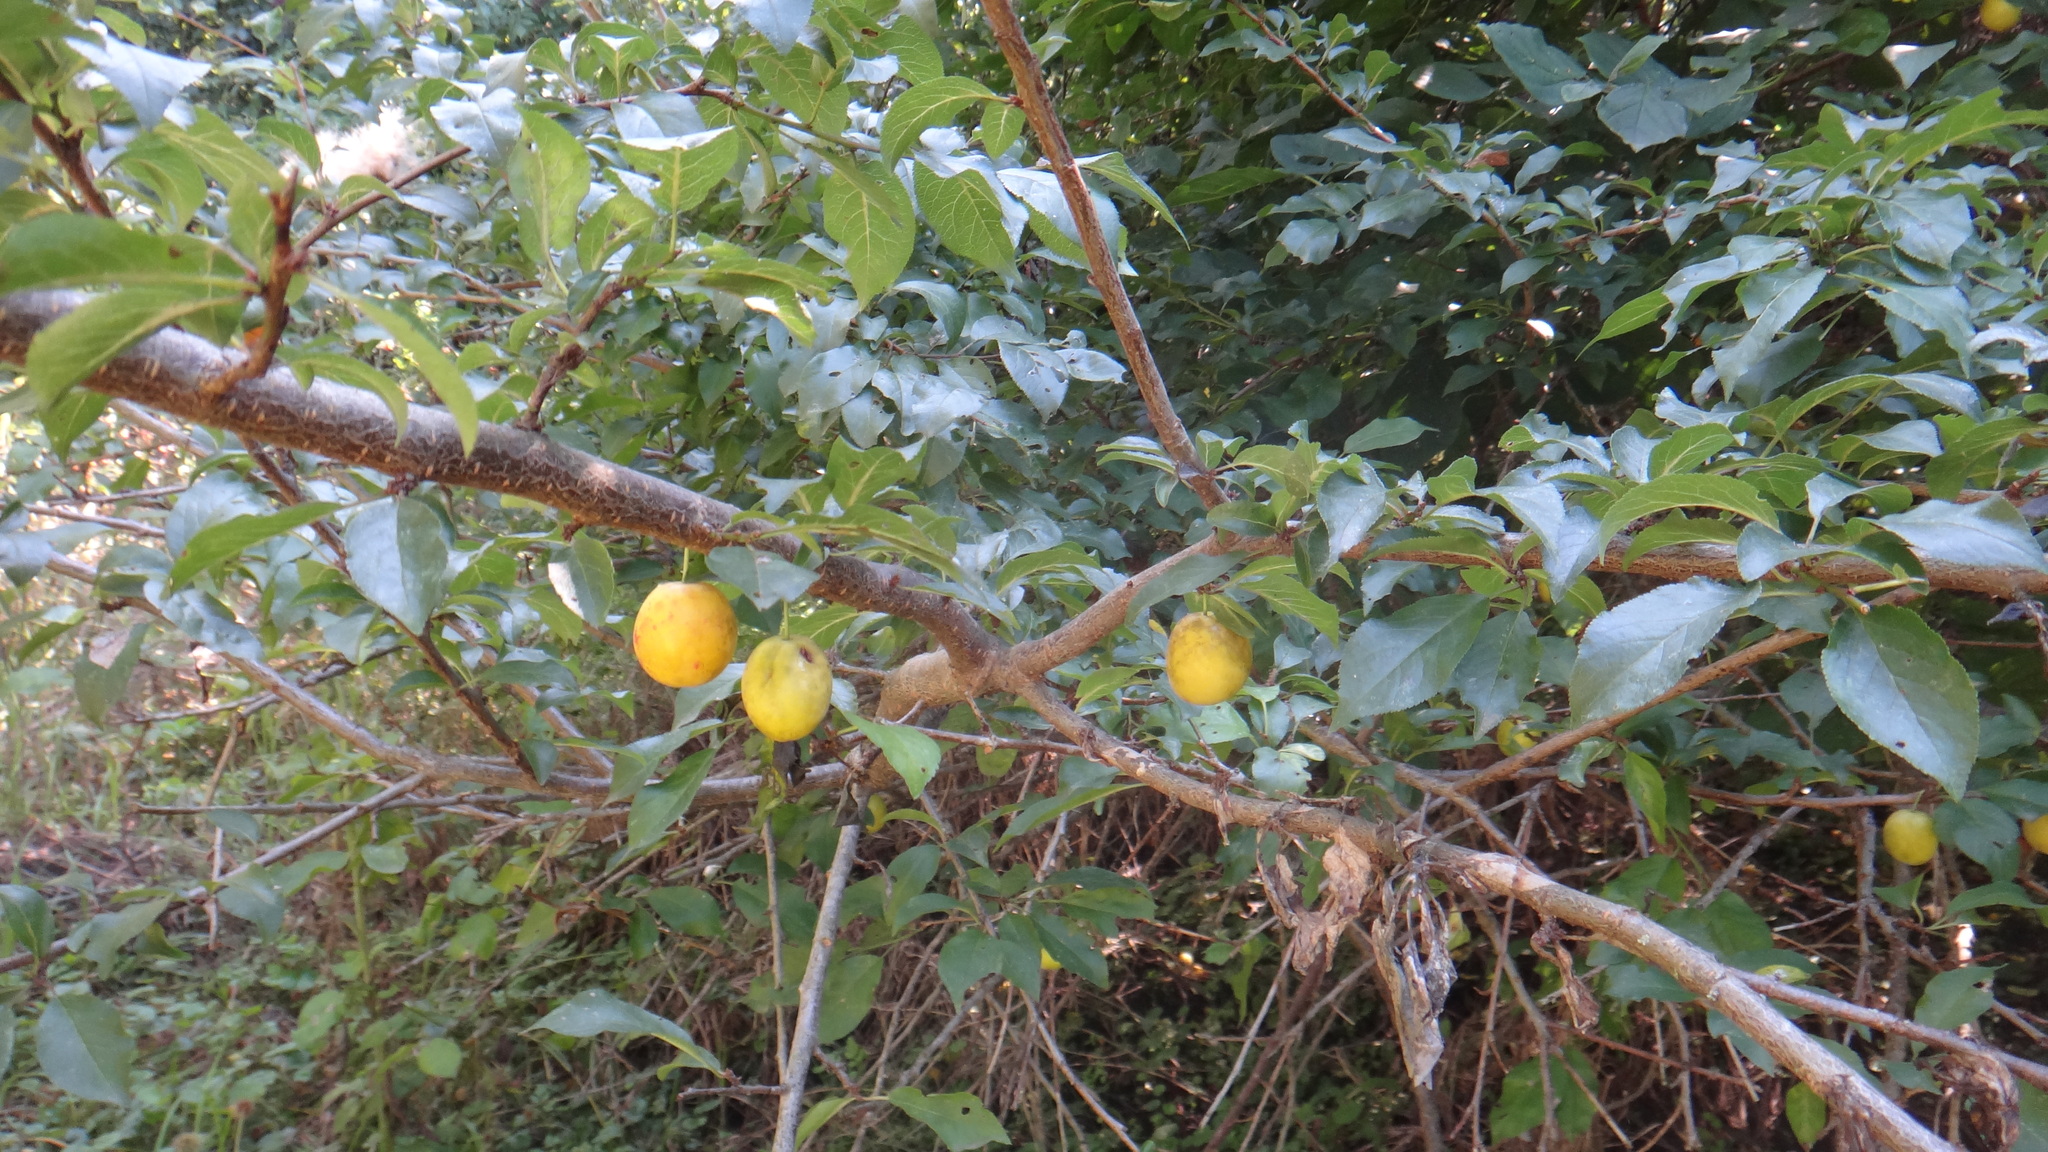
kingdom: Plantae
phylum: Tracheophyta
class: Magnoliopsida
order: Rosales
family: Rosaceae
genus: Prunus
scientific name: Prunus cerasifera
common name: Cherry plum
